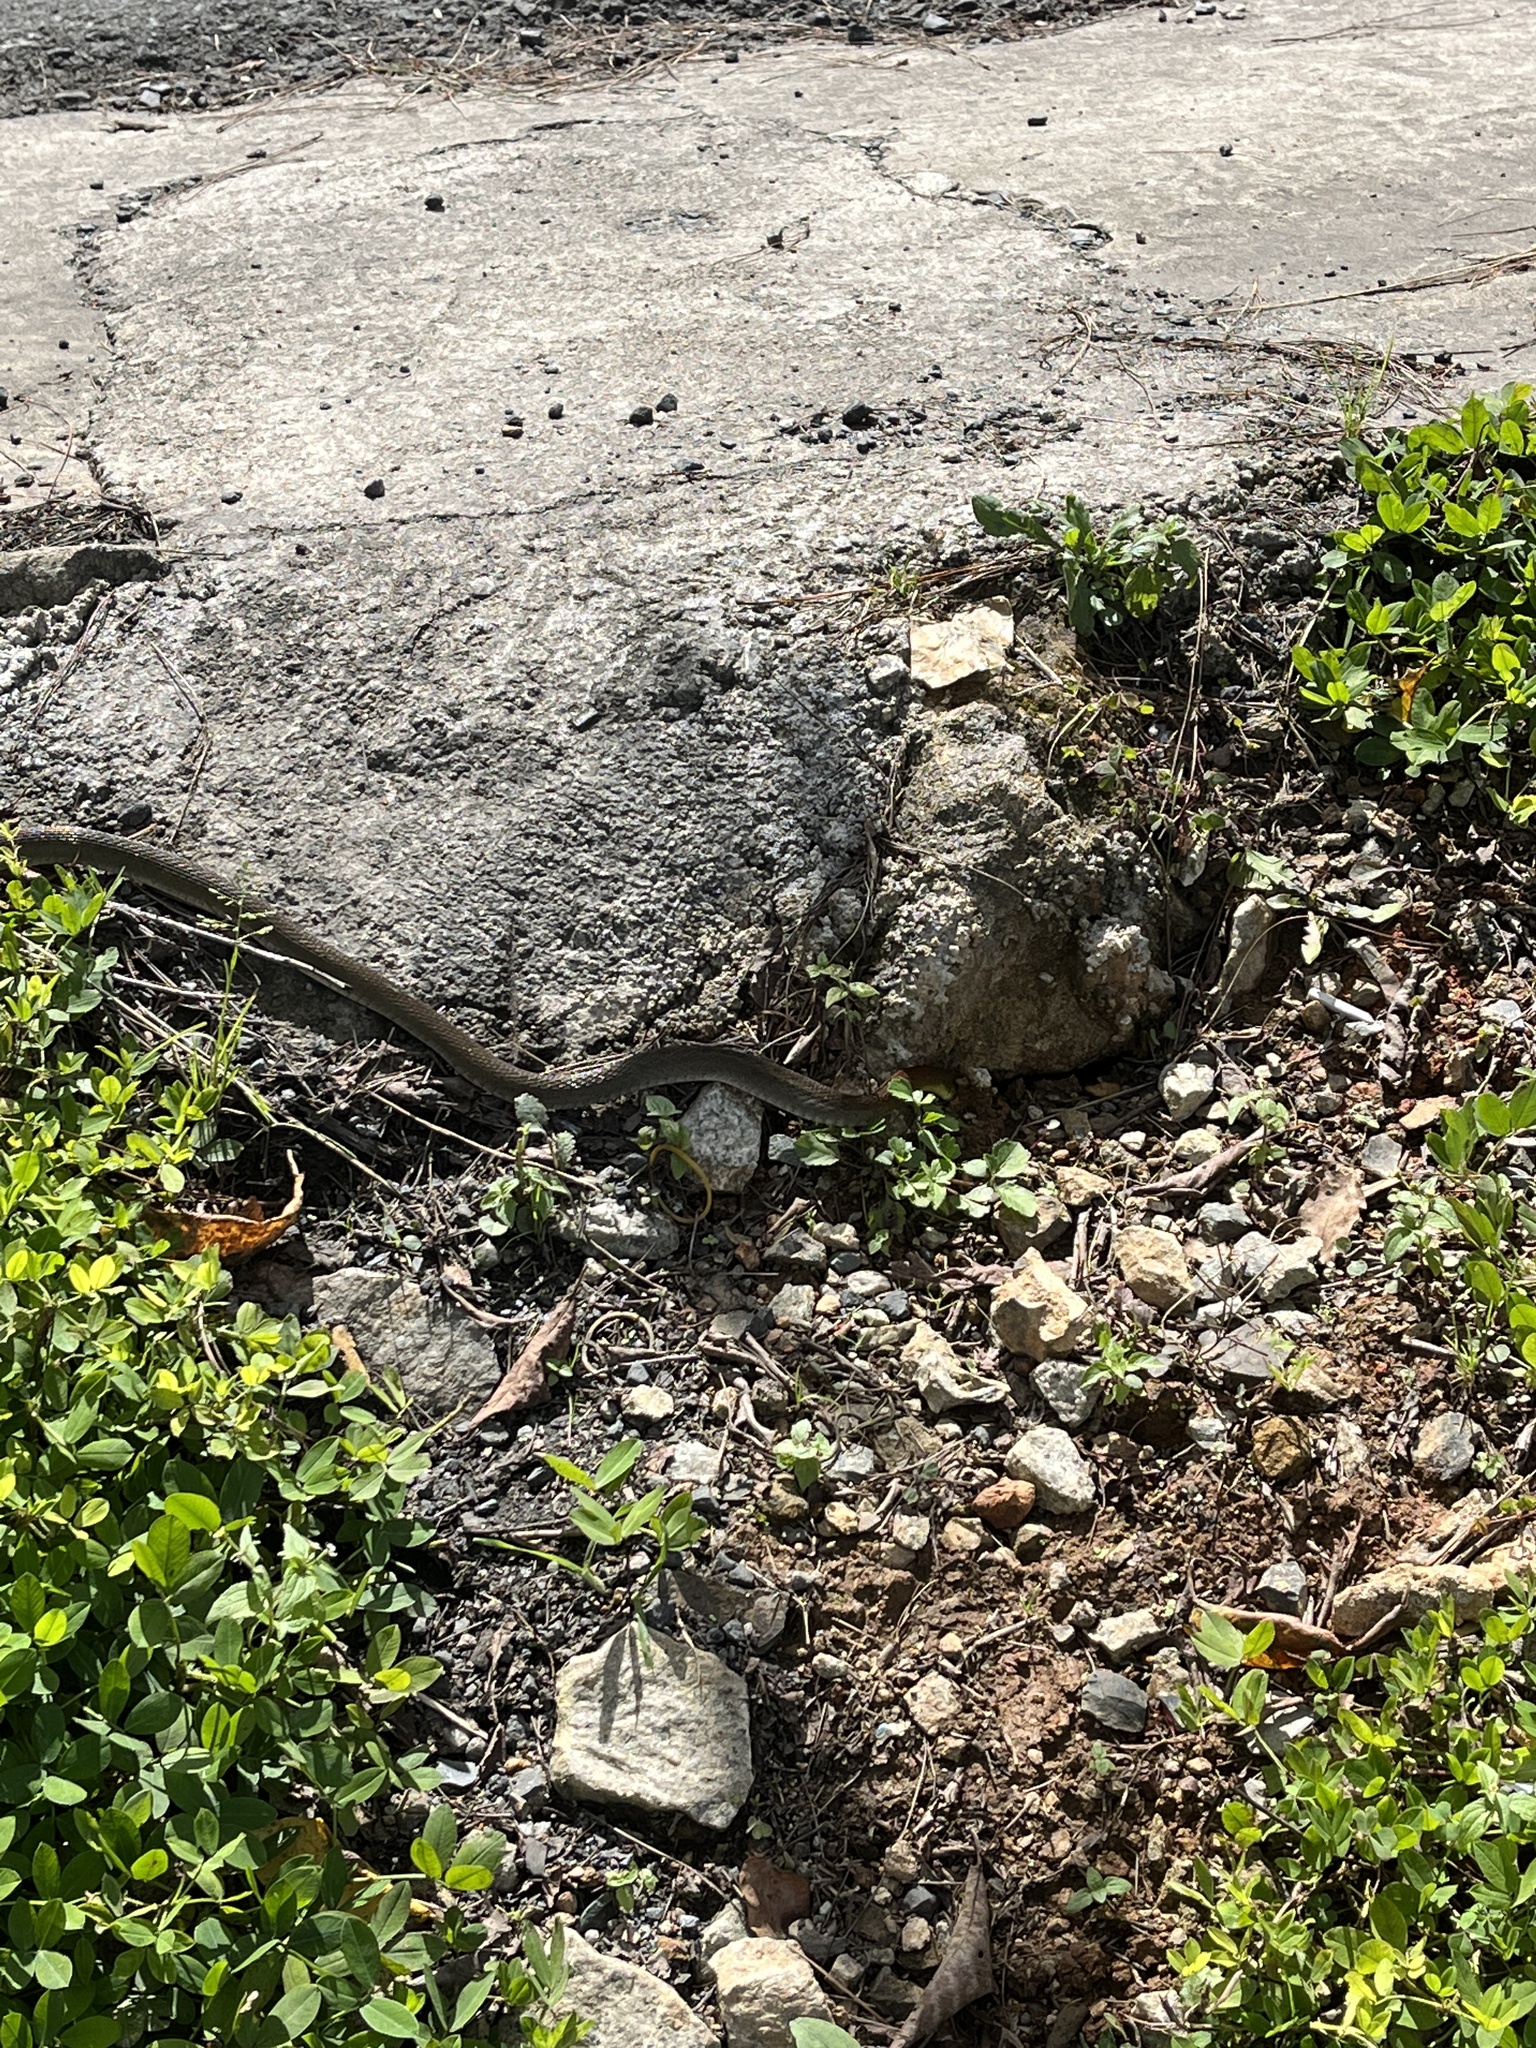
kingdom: Animalia
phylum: Chordata
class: Squamata
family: Colubridae
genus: Rhabdophis
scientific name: Rhabdophis
